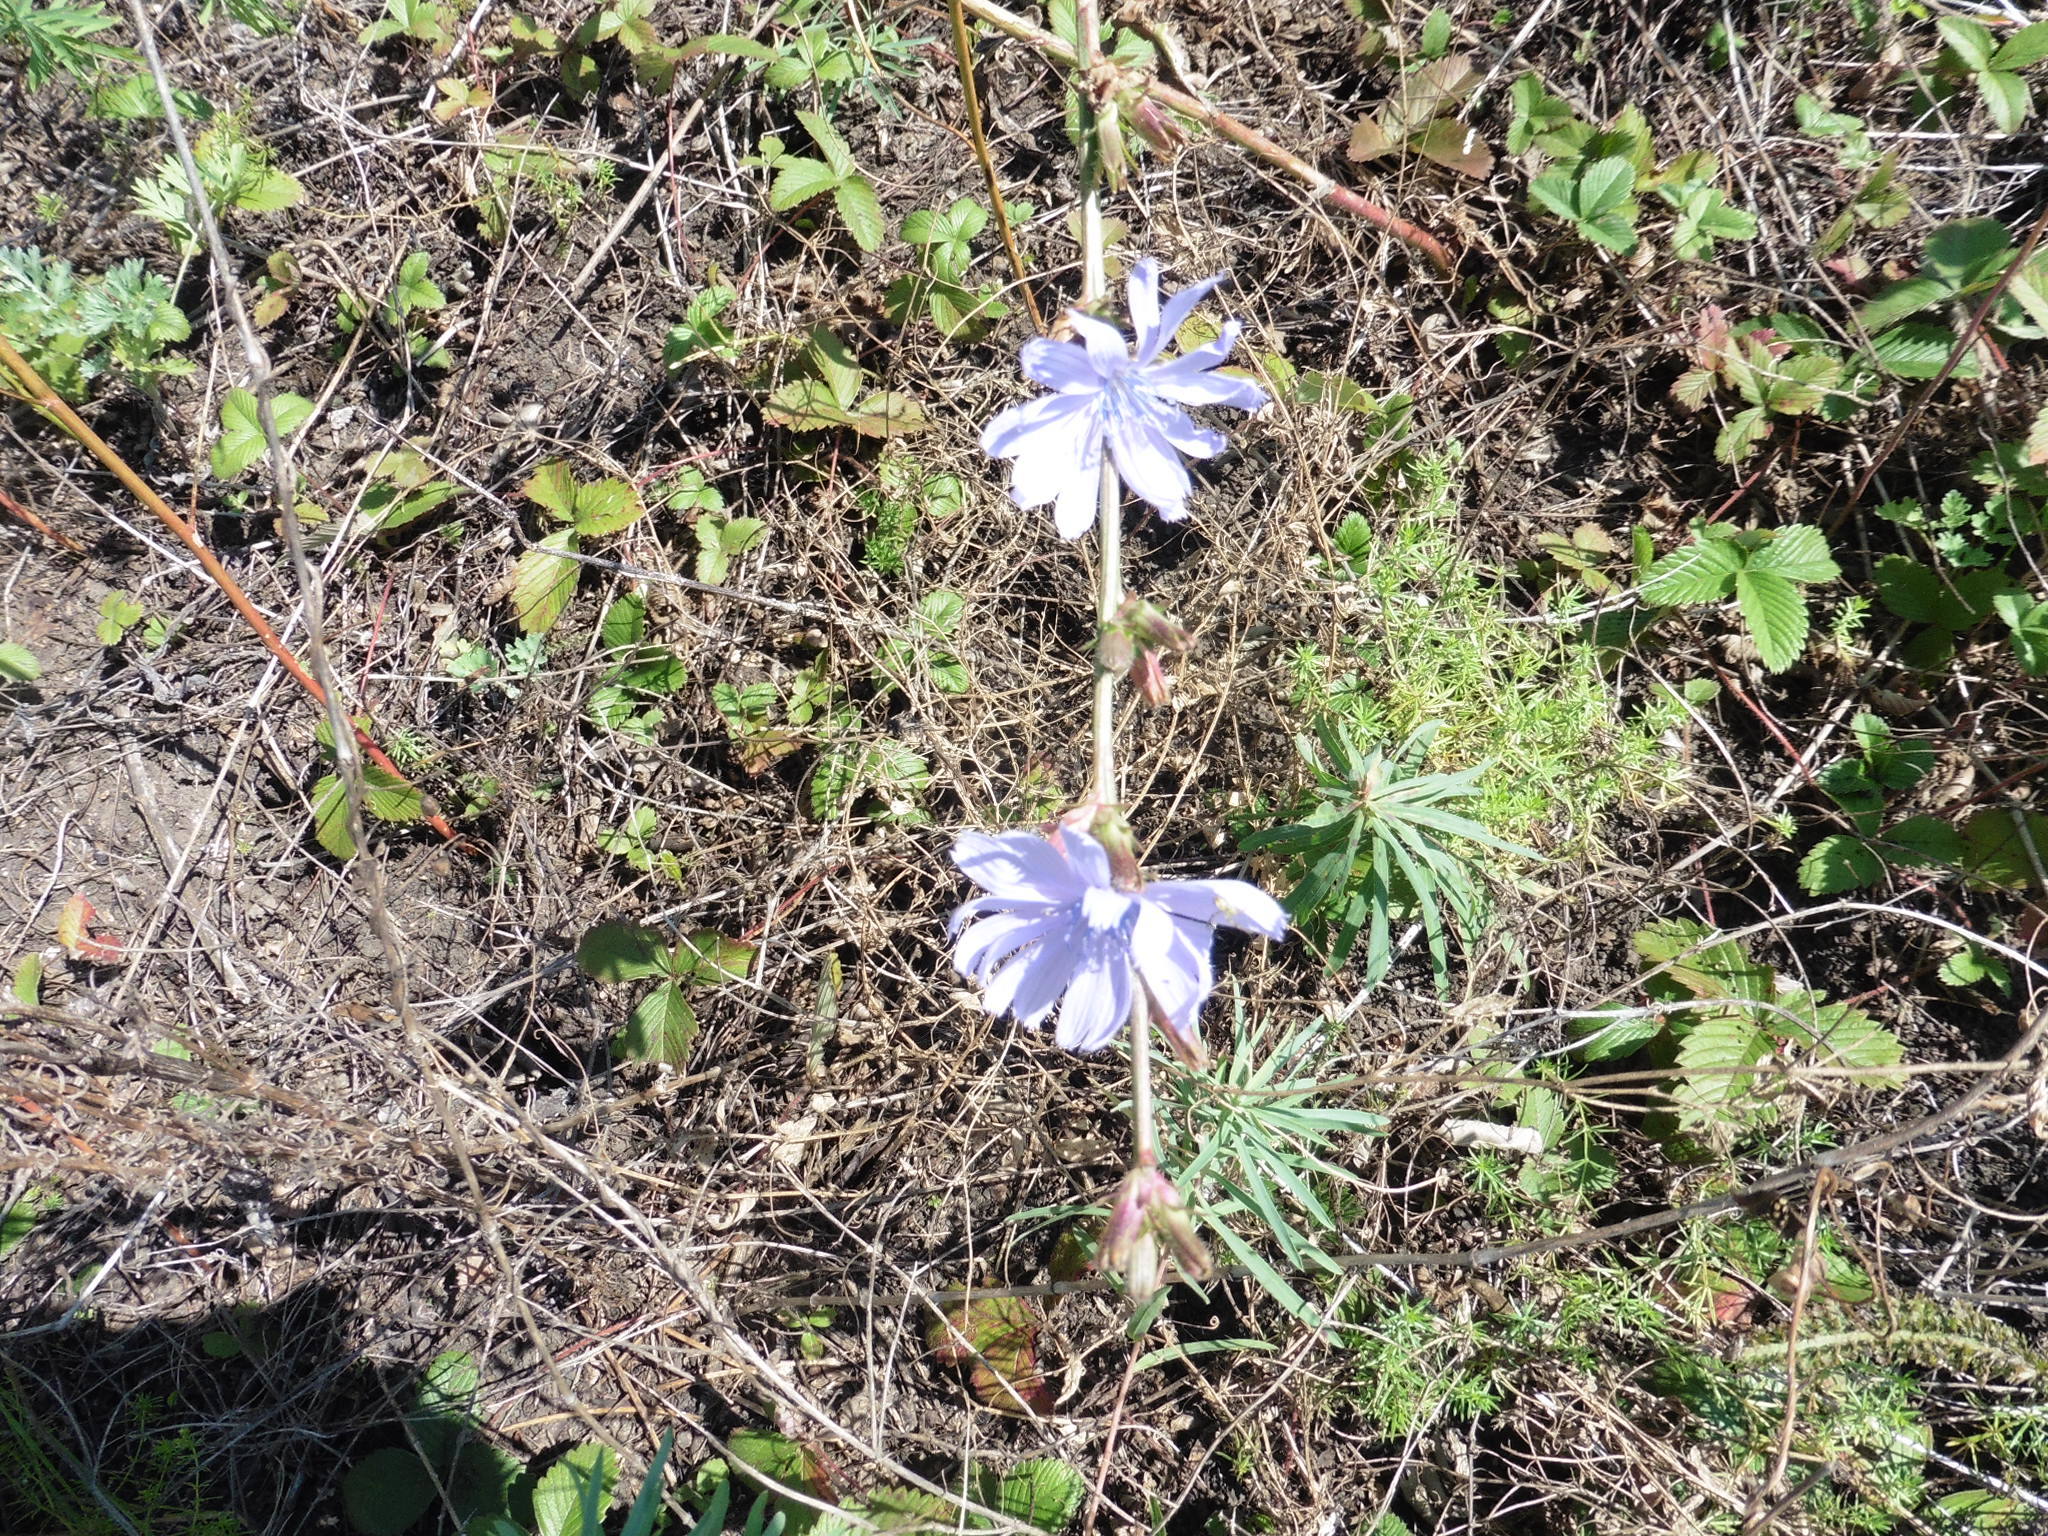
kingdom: Plantae
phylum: Tracheophyta
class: Magnoliopsida
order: Asterales
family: Asteraceae
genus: Cichorium
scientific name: Cichorium intybus
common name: Chicory
